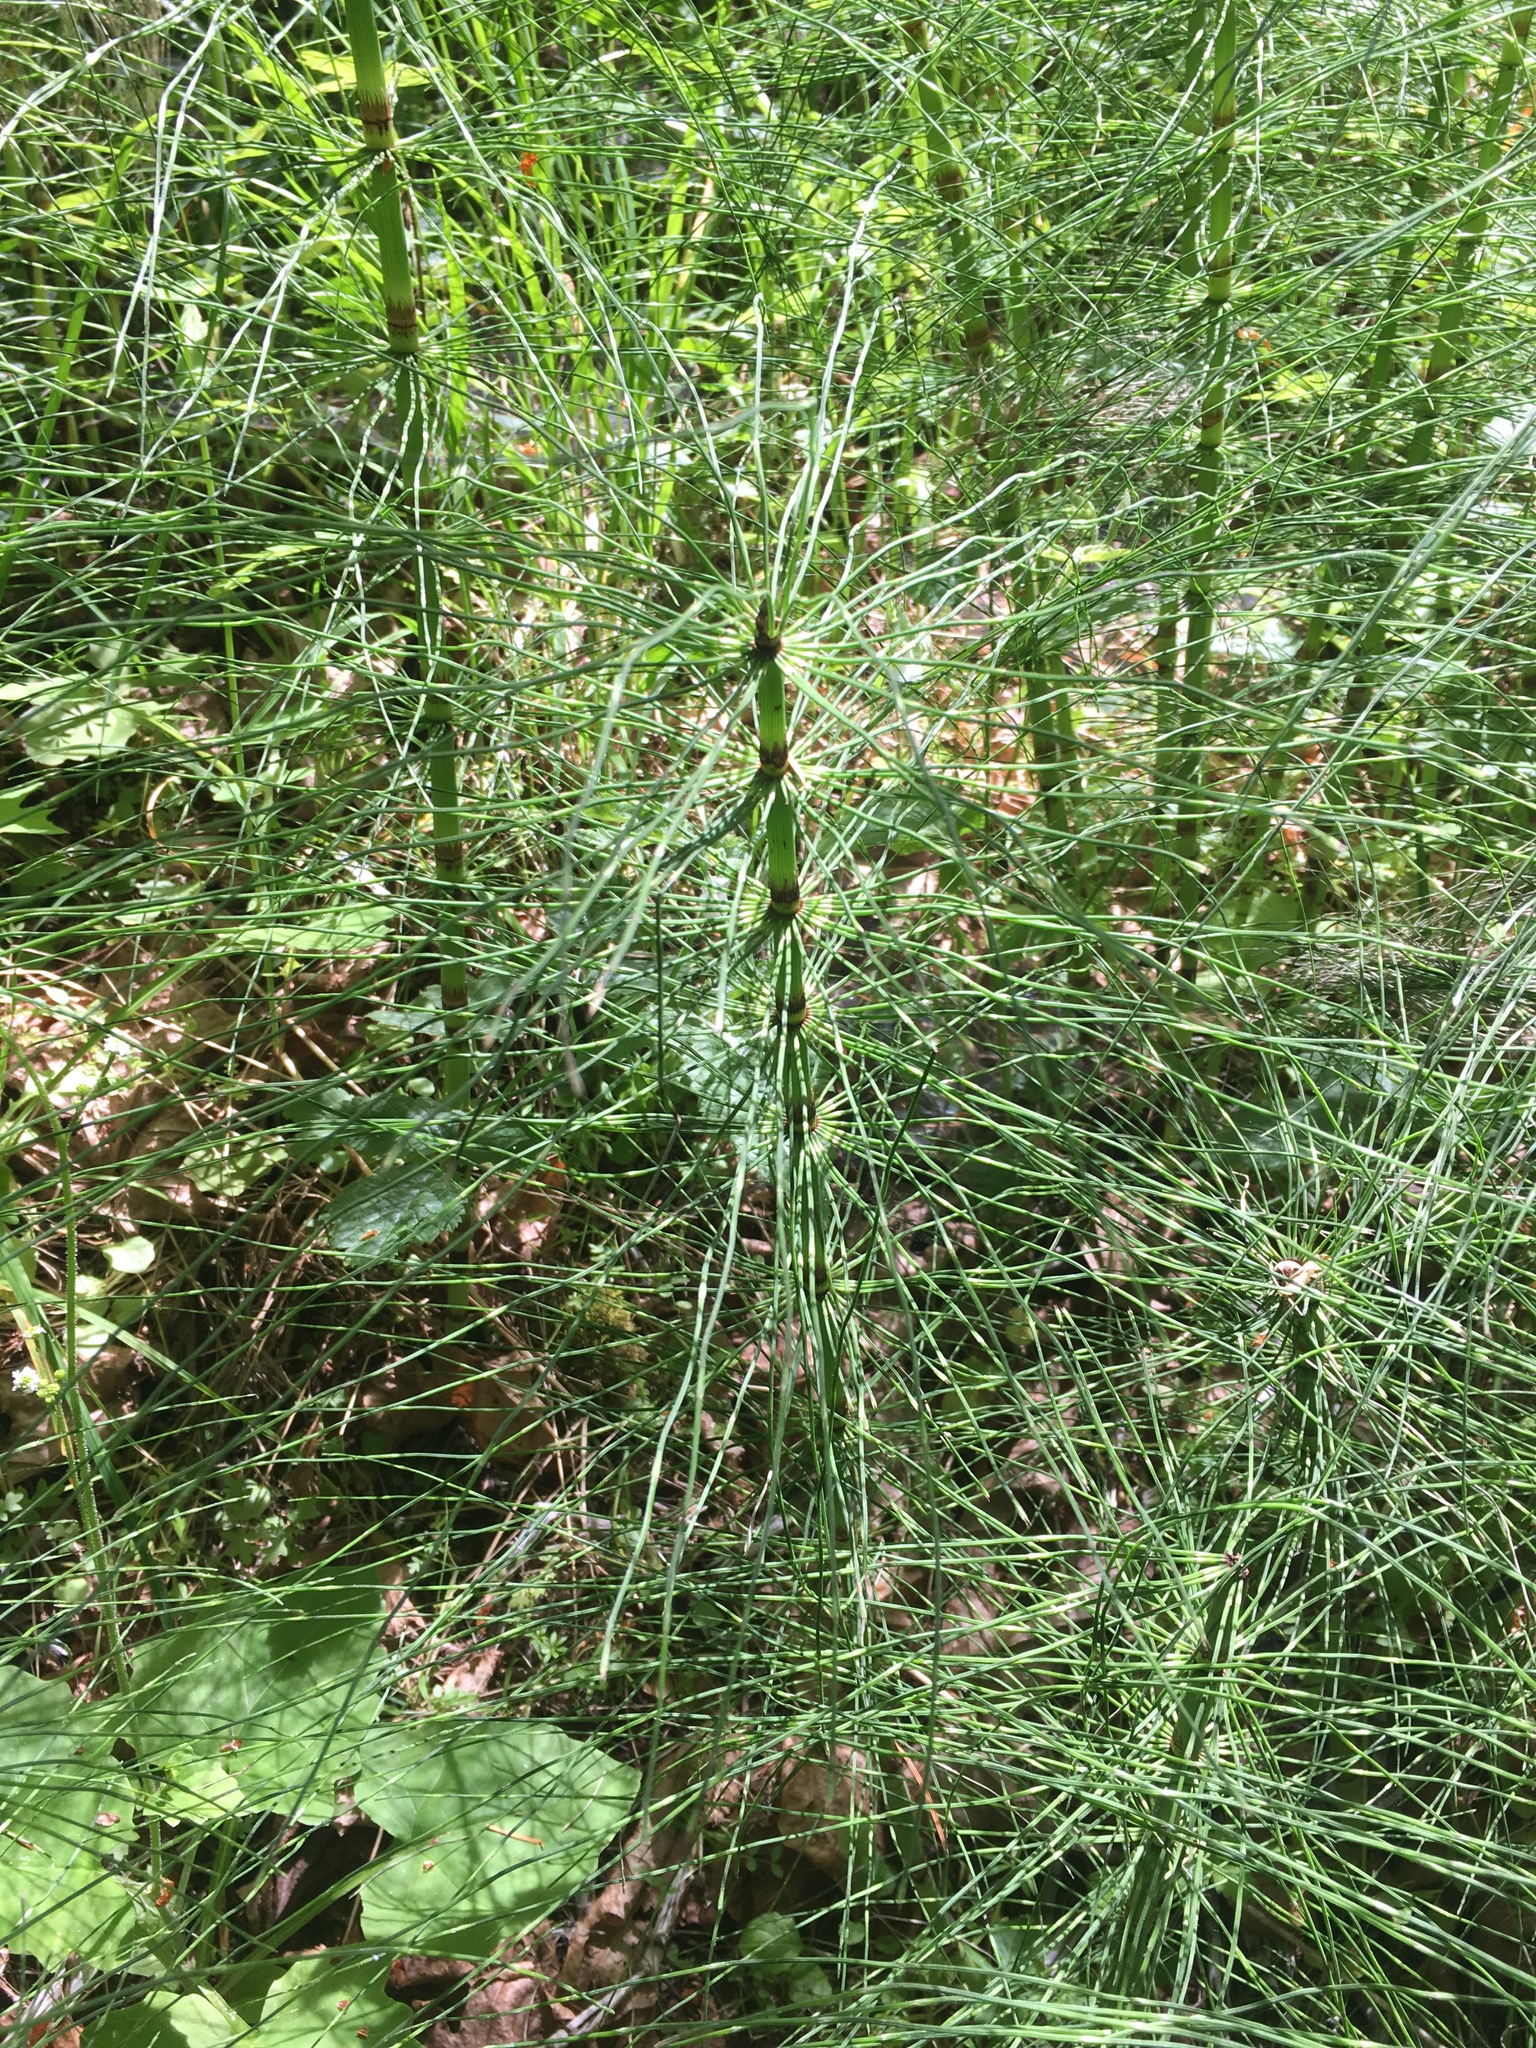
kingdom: Plantae
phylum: Tracheophyta
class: Polypodiopsida
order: Equisetales
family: Equisetaceae
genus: Equisetum
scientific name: Equisetum telmateia
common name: Great horsetail
